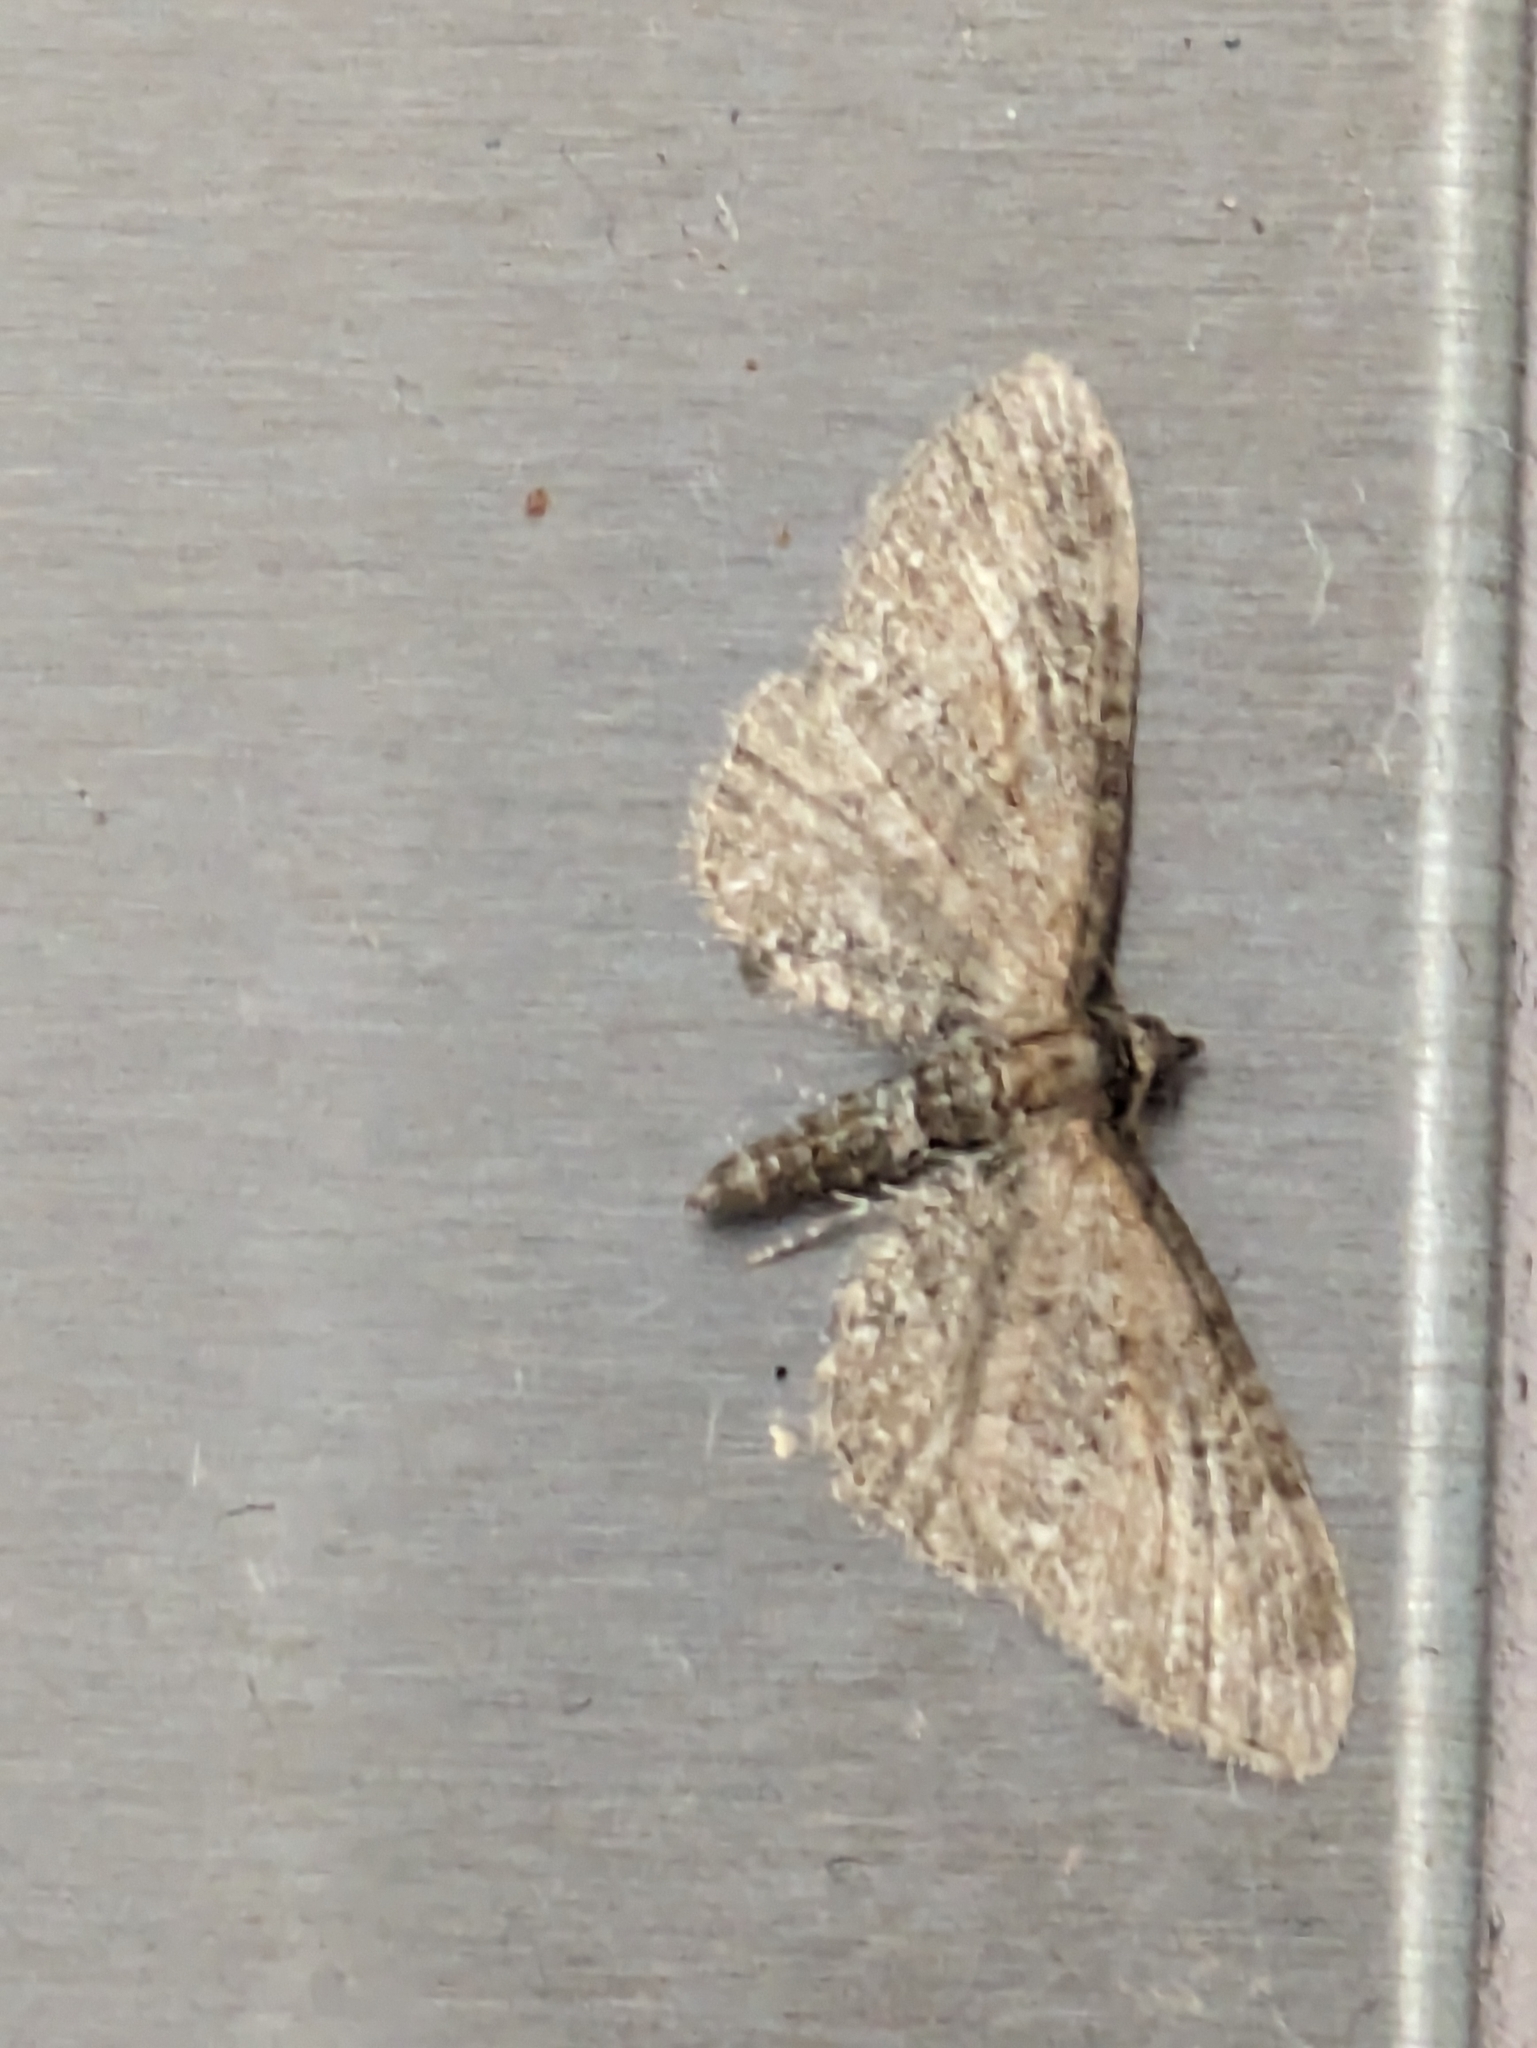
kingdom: Animalia
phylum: Arthropoda
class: Insecta
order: Lepidoptera
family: Geometridae
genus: Eupithecia
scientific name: Eupithecia vulgata
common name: Common pug
